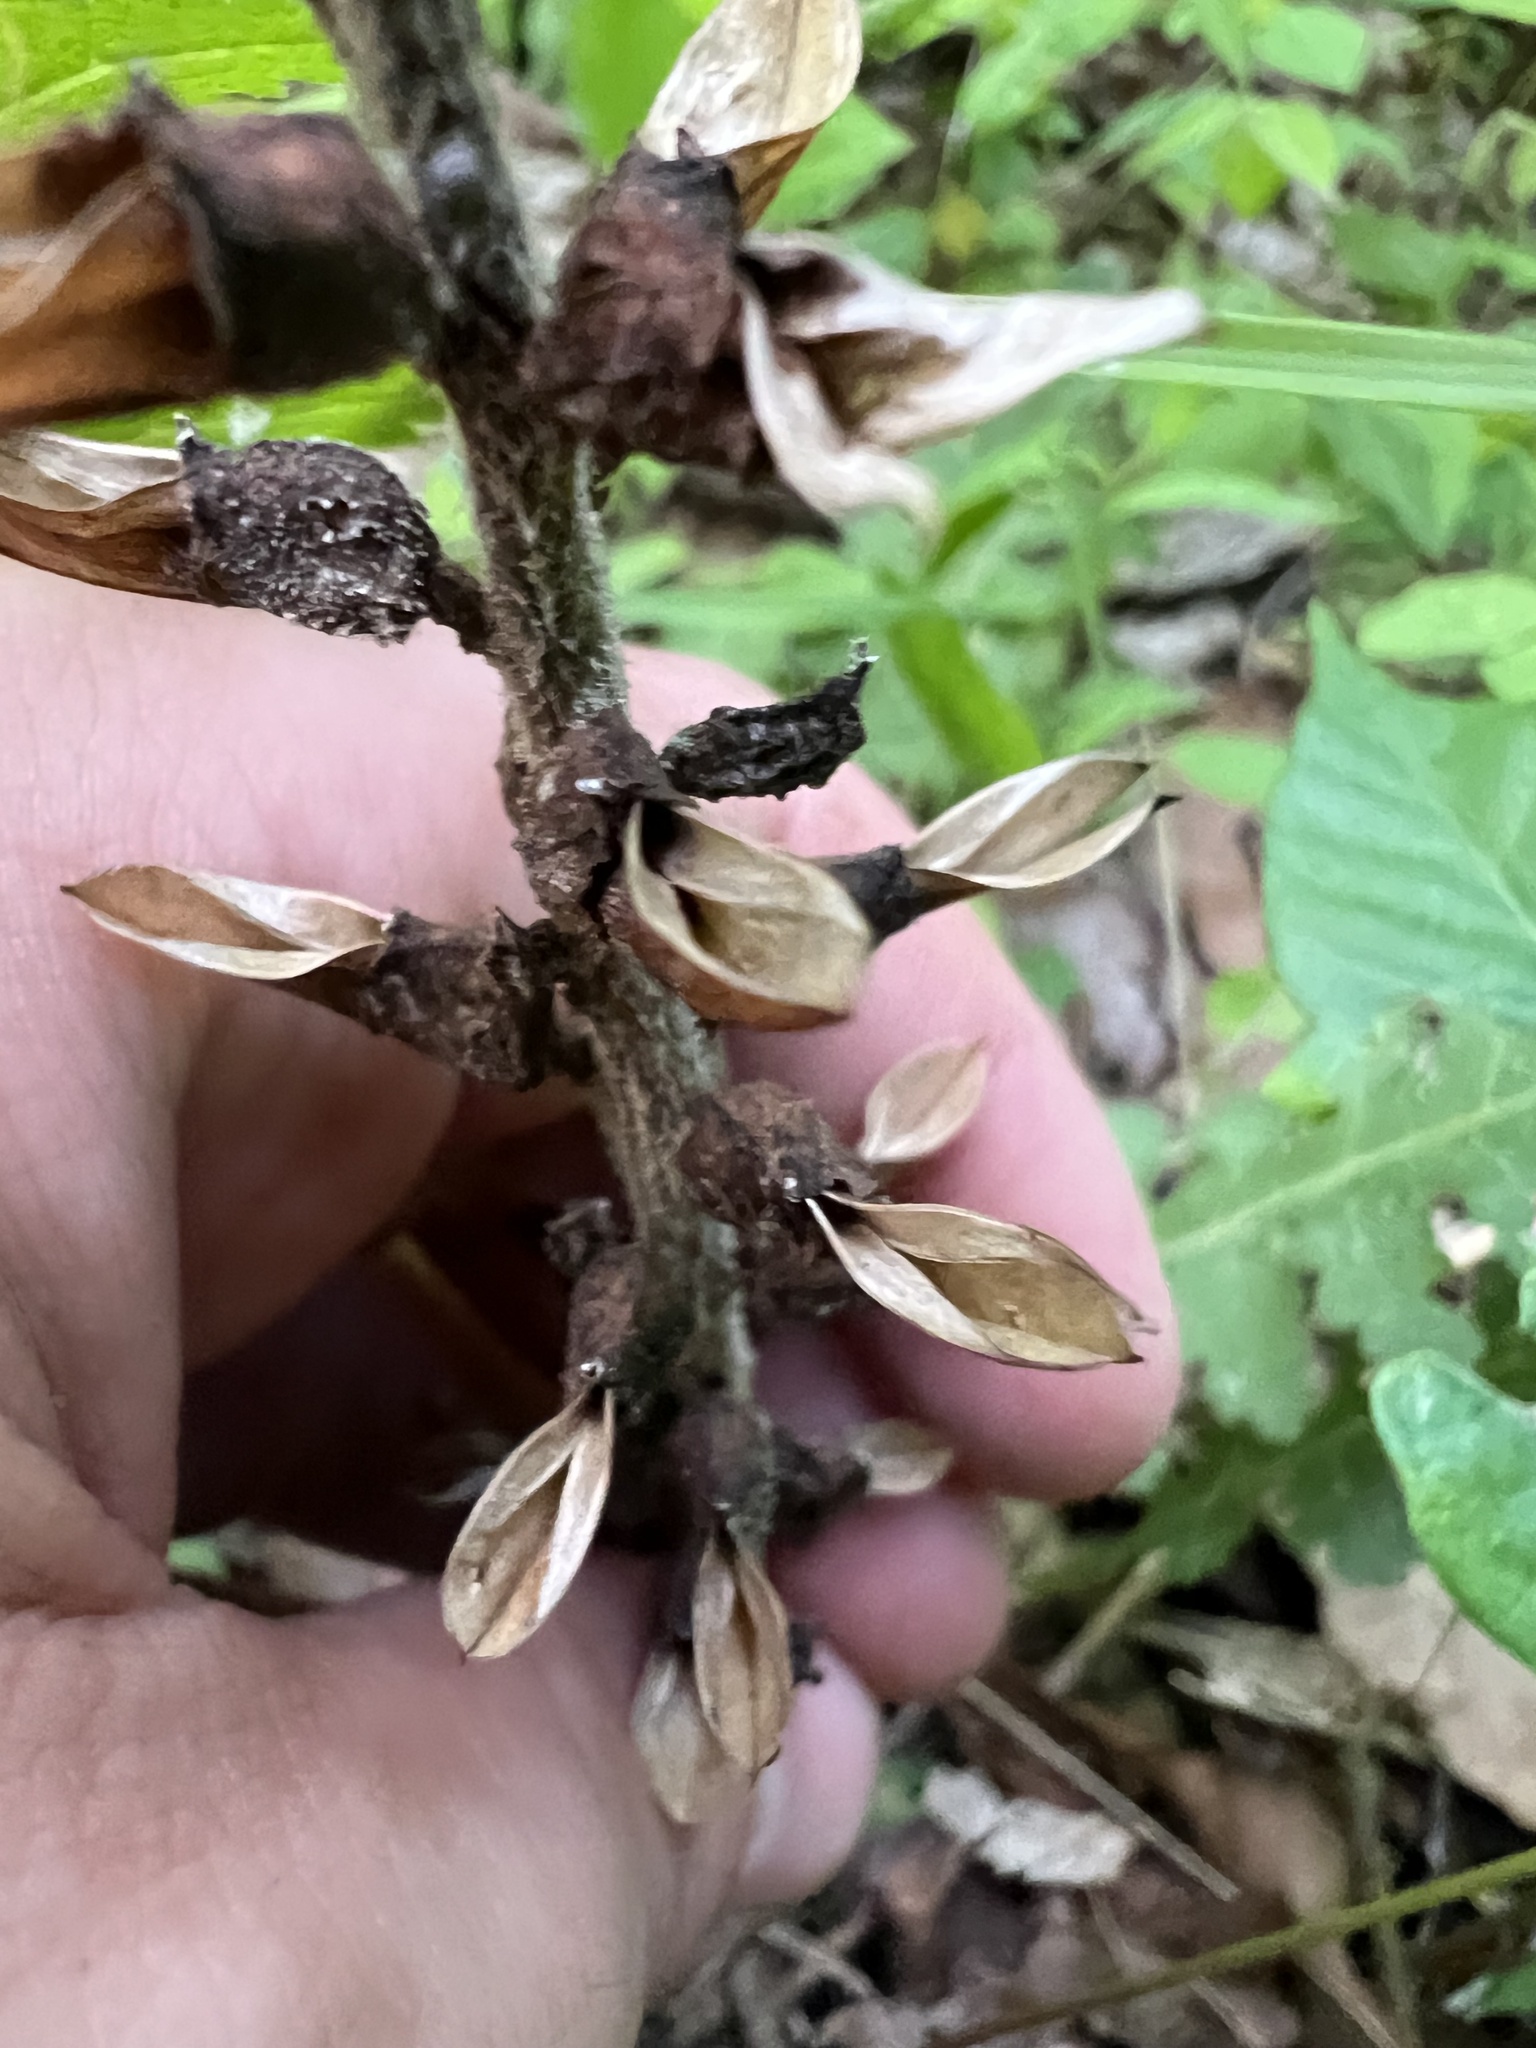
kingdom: Plantae
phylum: Tracheophyta
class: Magnoliopsida
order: Lamiales
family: Orobanchaceae
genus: Pedicularis
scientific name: Pedicularis canadensis
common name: Early lousewort
